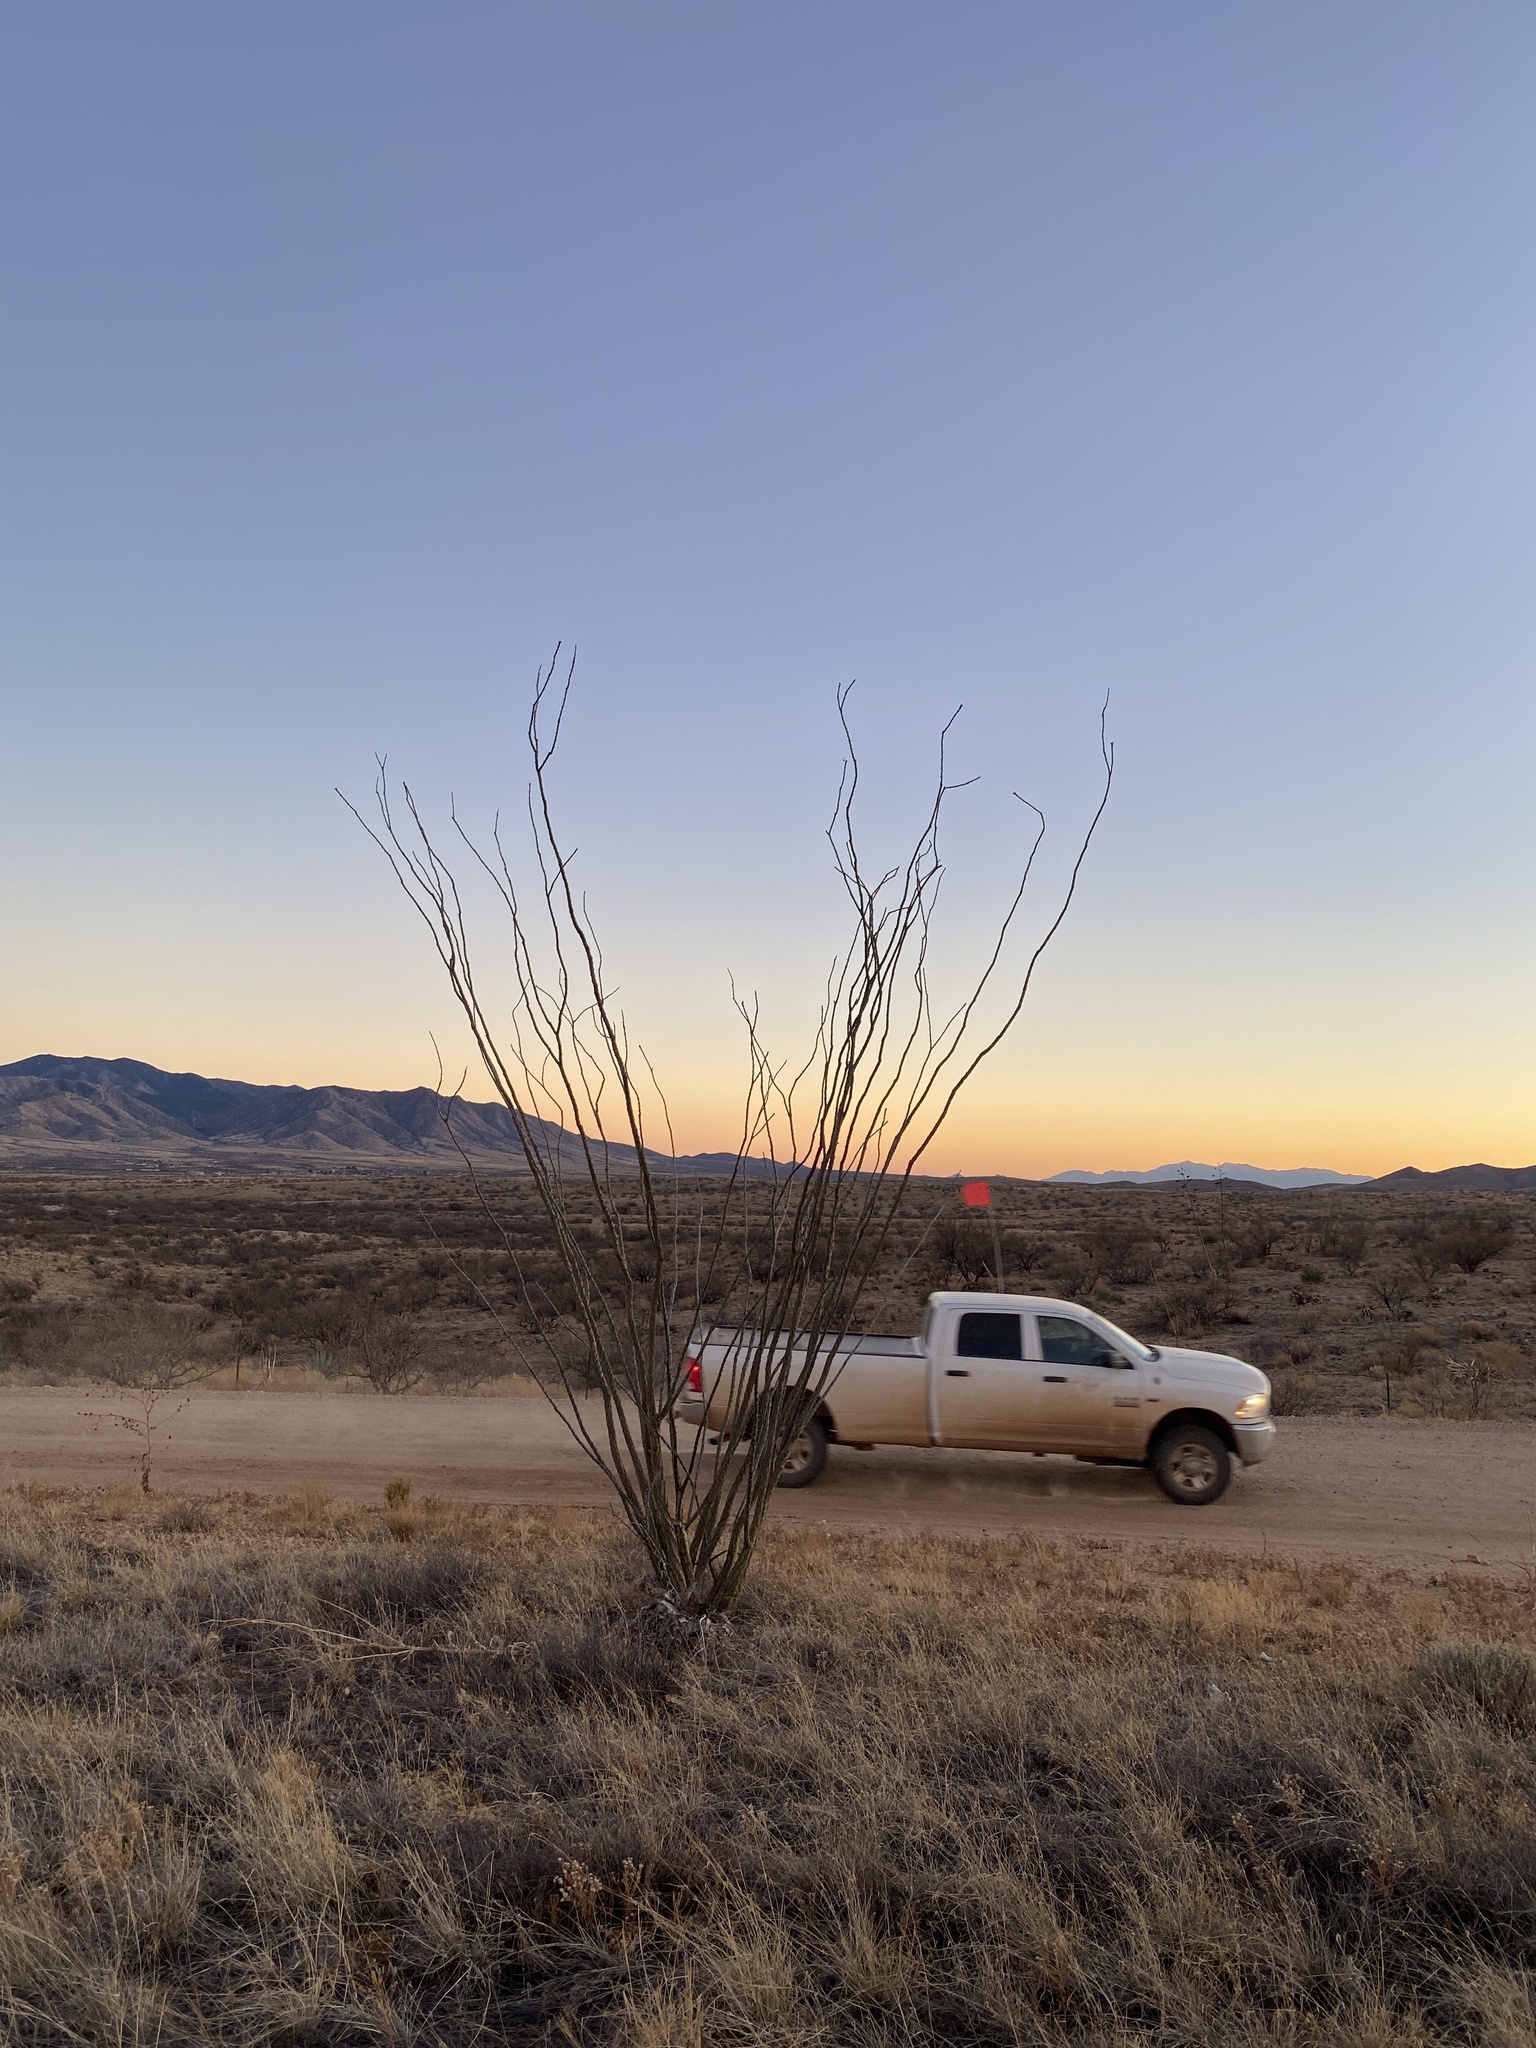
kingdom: Plantae
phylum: Tracheophyta
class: Magnoliopsida
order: Ericales
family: Fouquieriaceae
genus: Fouquieria
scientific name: Fouquieria splendens
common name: Vine-cactus
